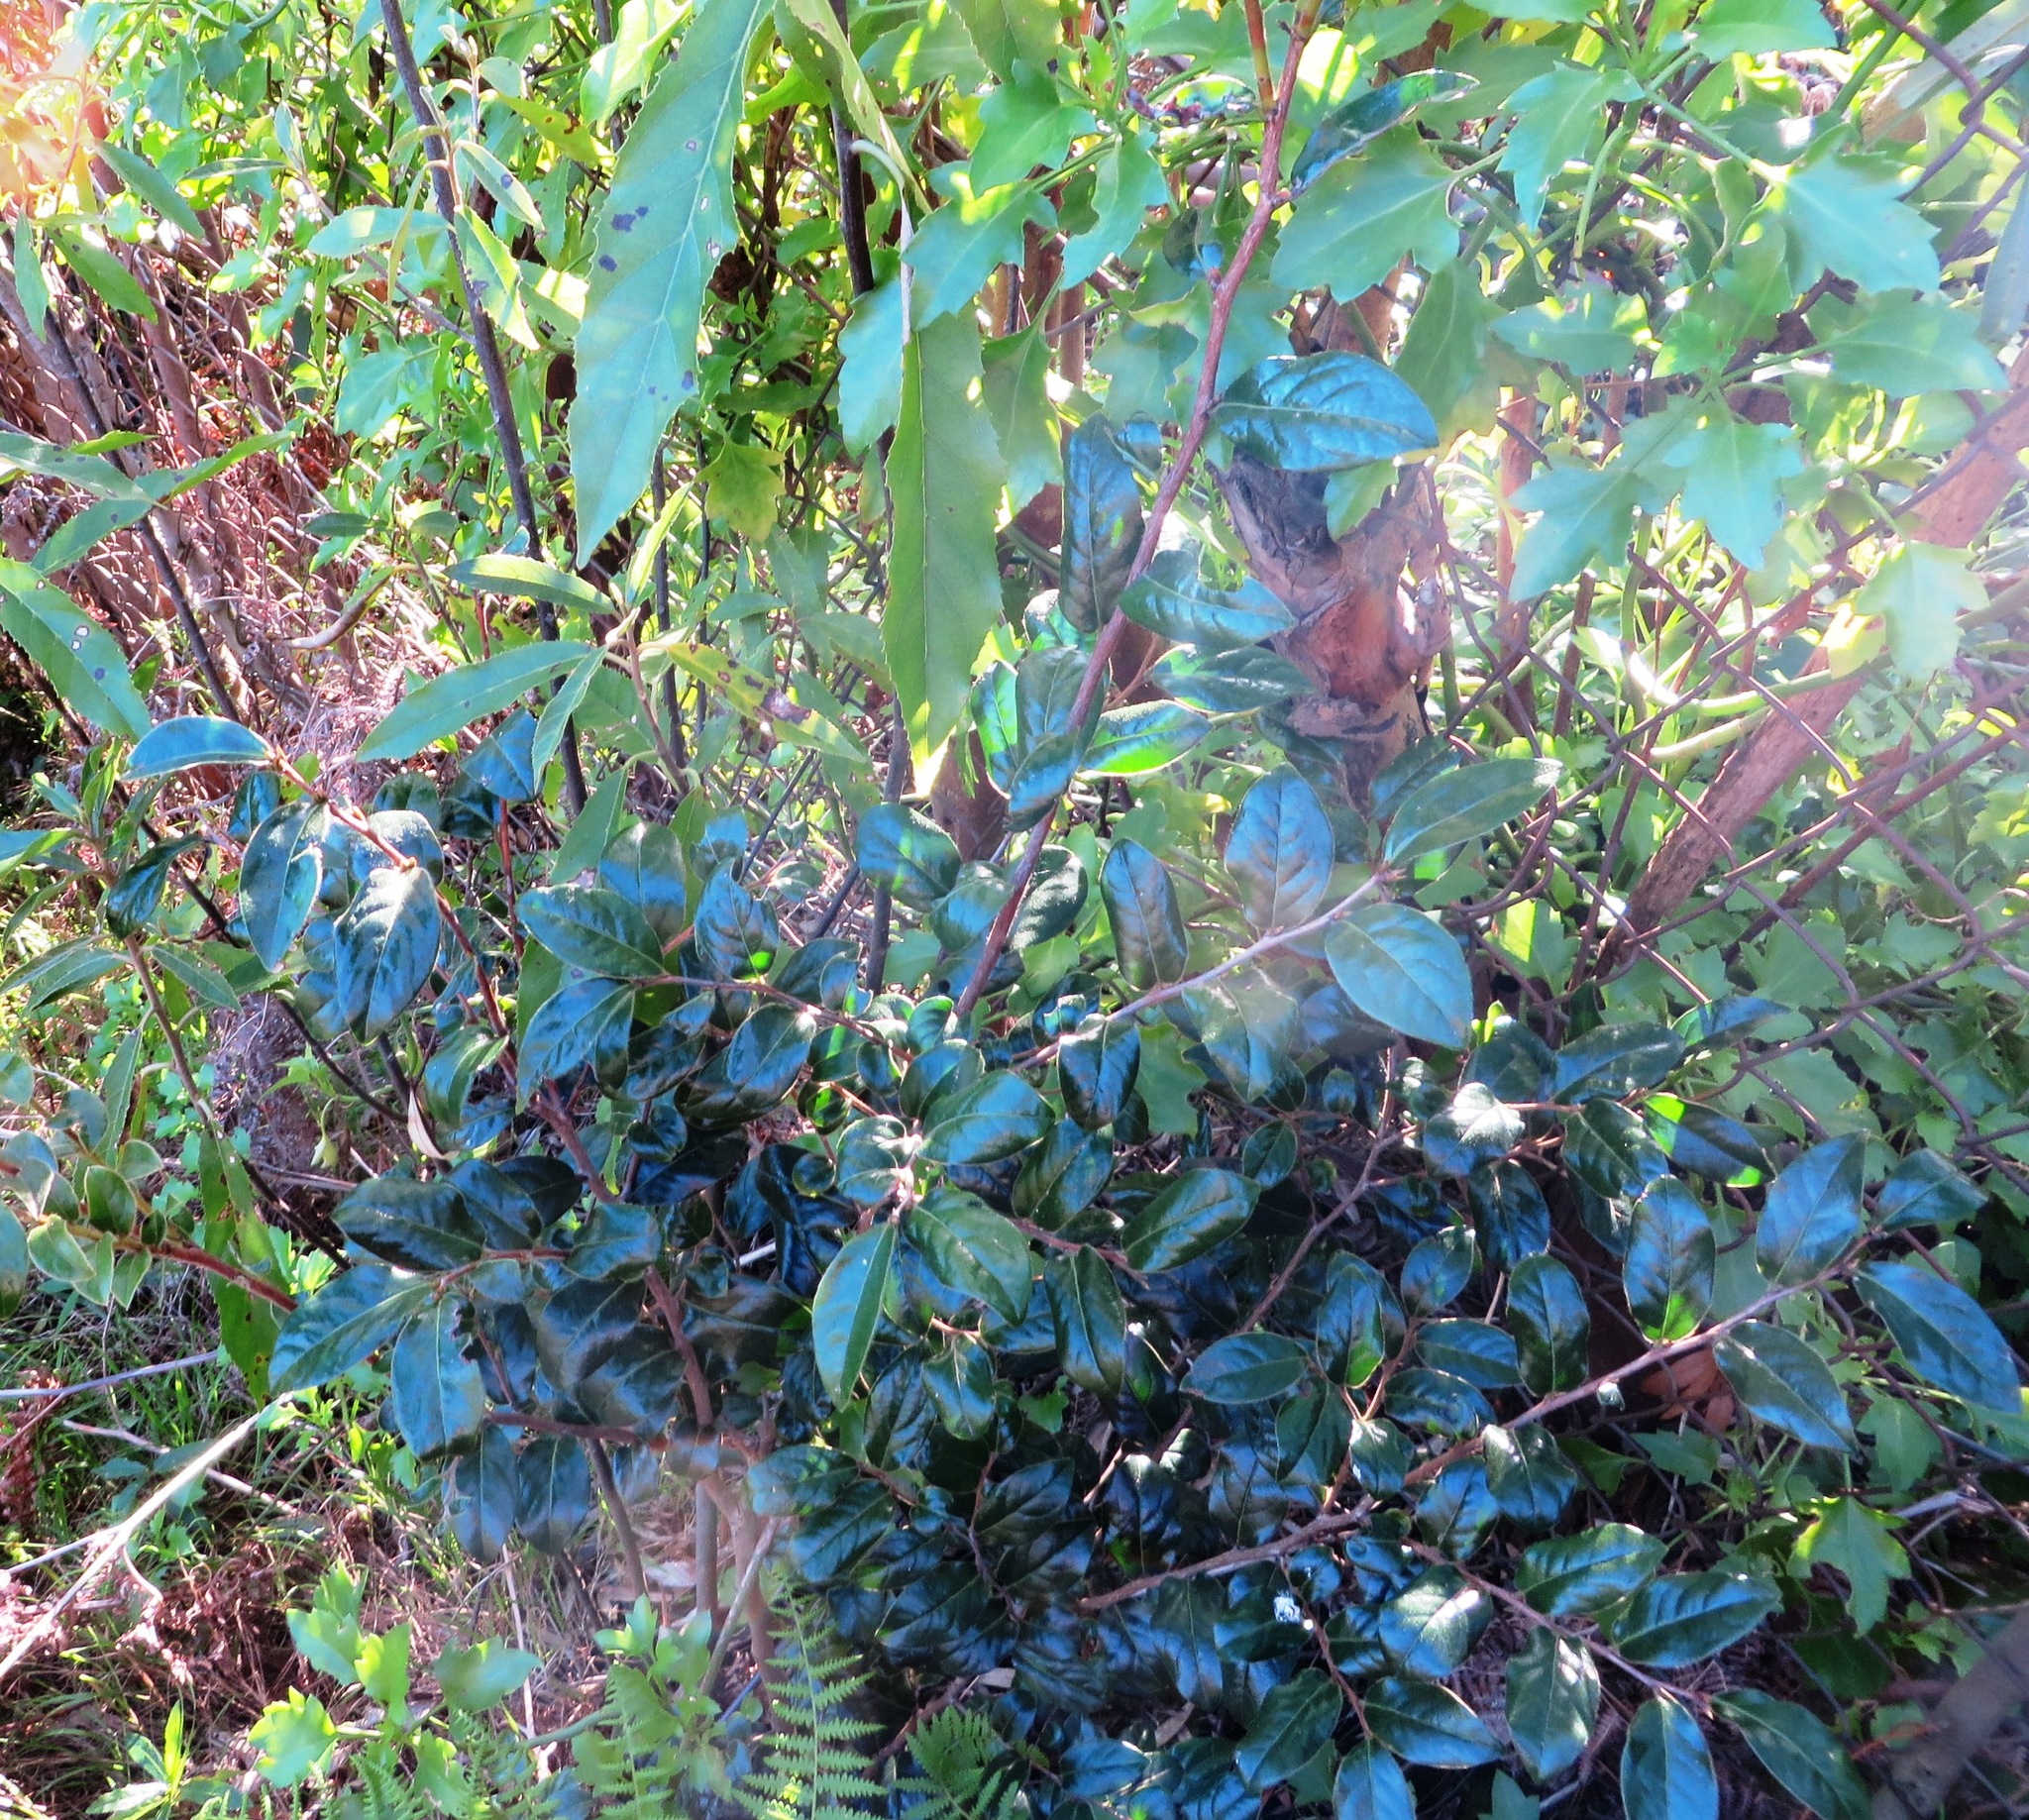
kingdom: Plantae
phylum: Tracheophyta
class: Magnoliopsida
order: Ericales
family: Ebenaceae
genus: Diospyros
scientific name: Diospyros whyteana
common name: Bladder-nut
